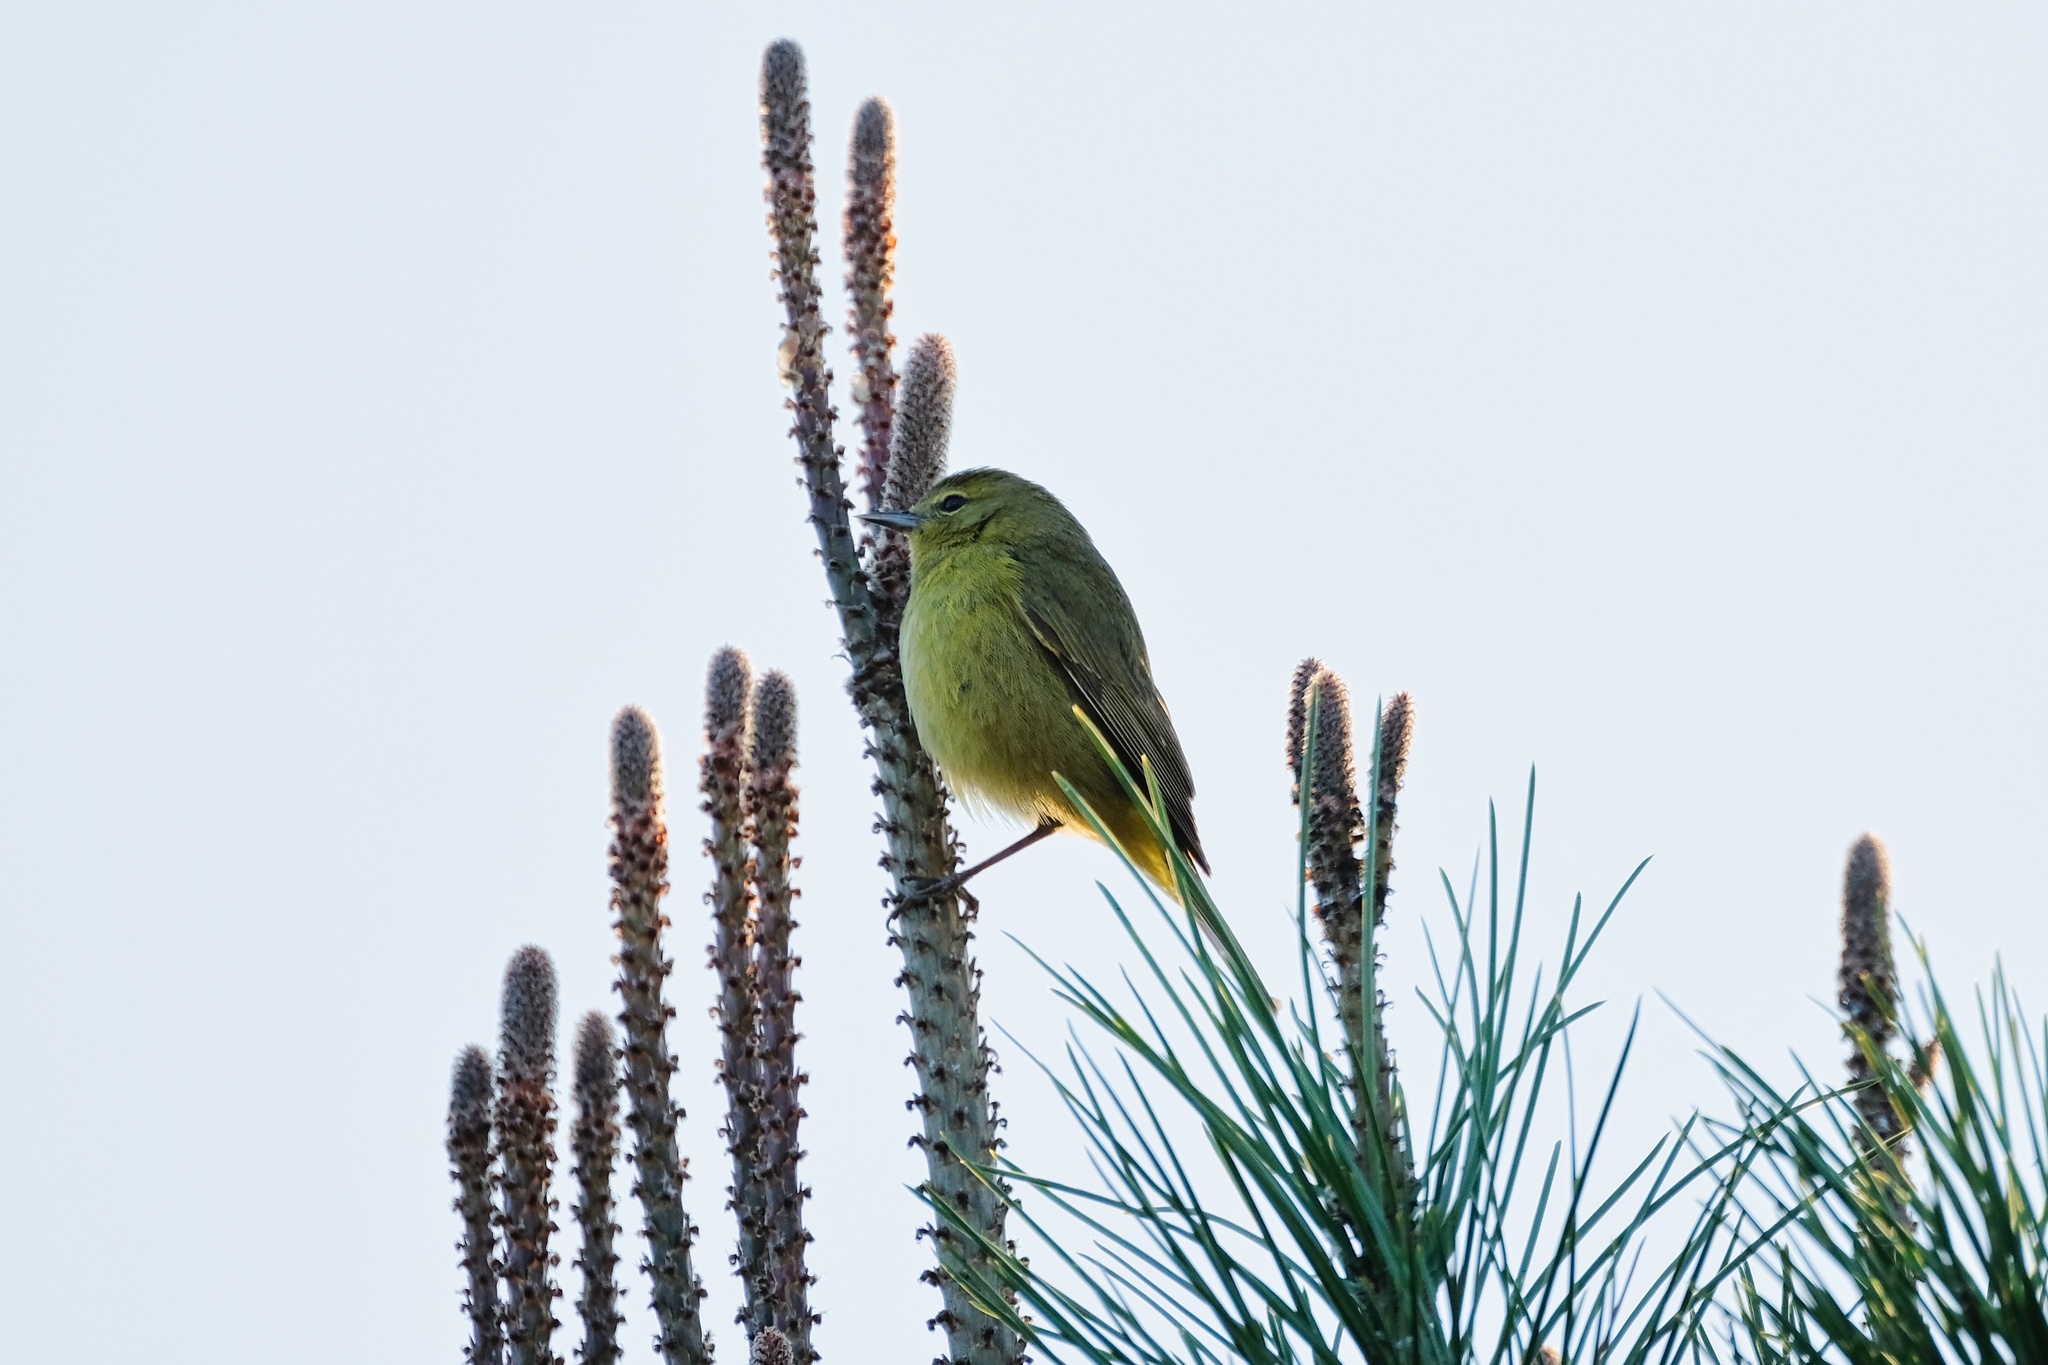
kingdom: Animalia
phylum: Chordata
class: Aves
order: Passeriformes
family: Parulidae
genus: Leiothlypis
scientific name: Leiothlypis celata
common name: Orange-crowned warbler
